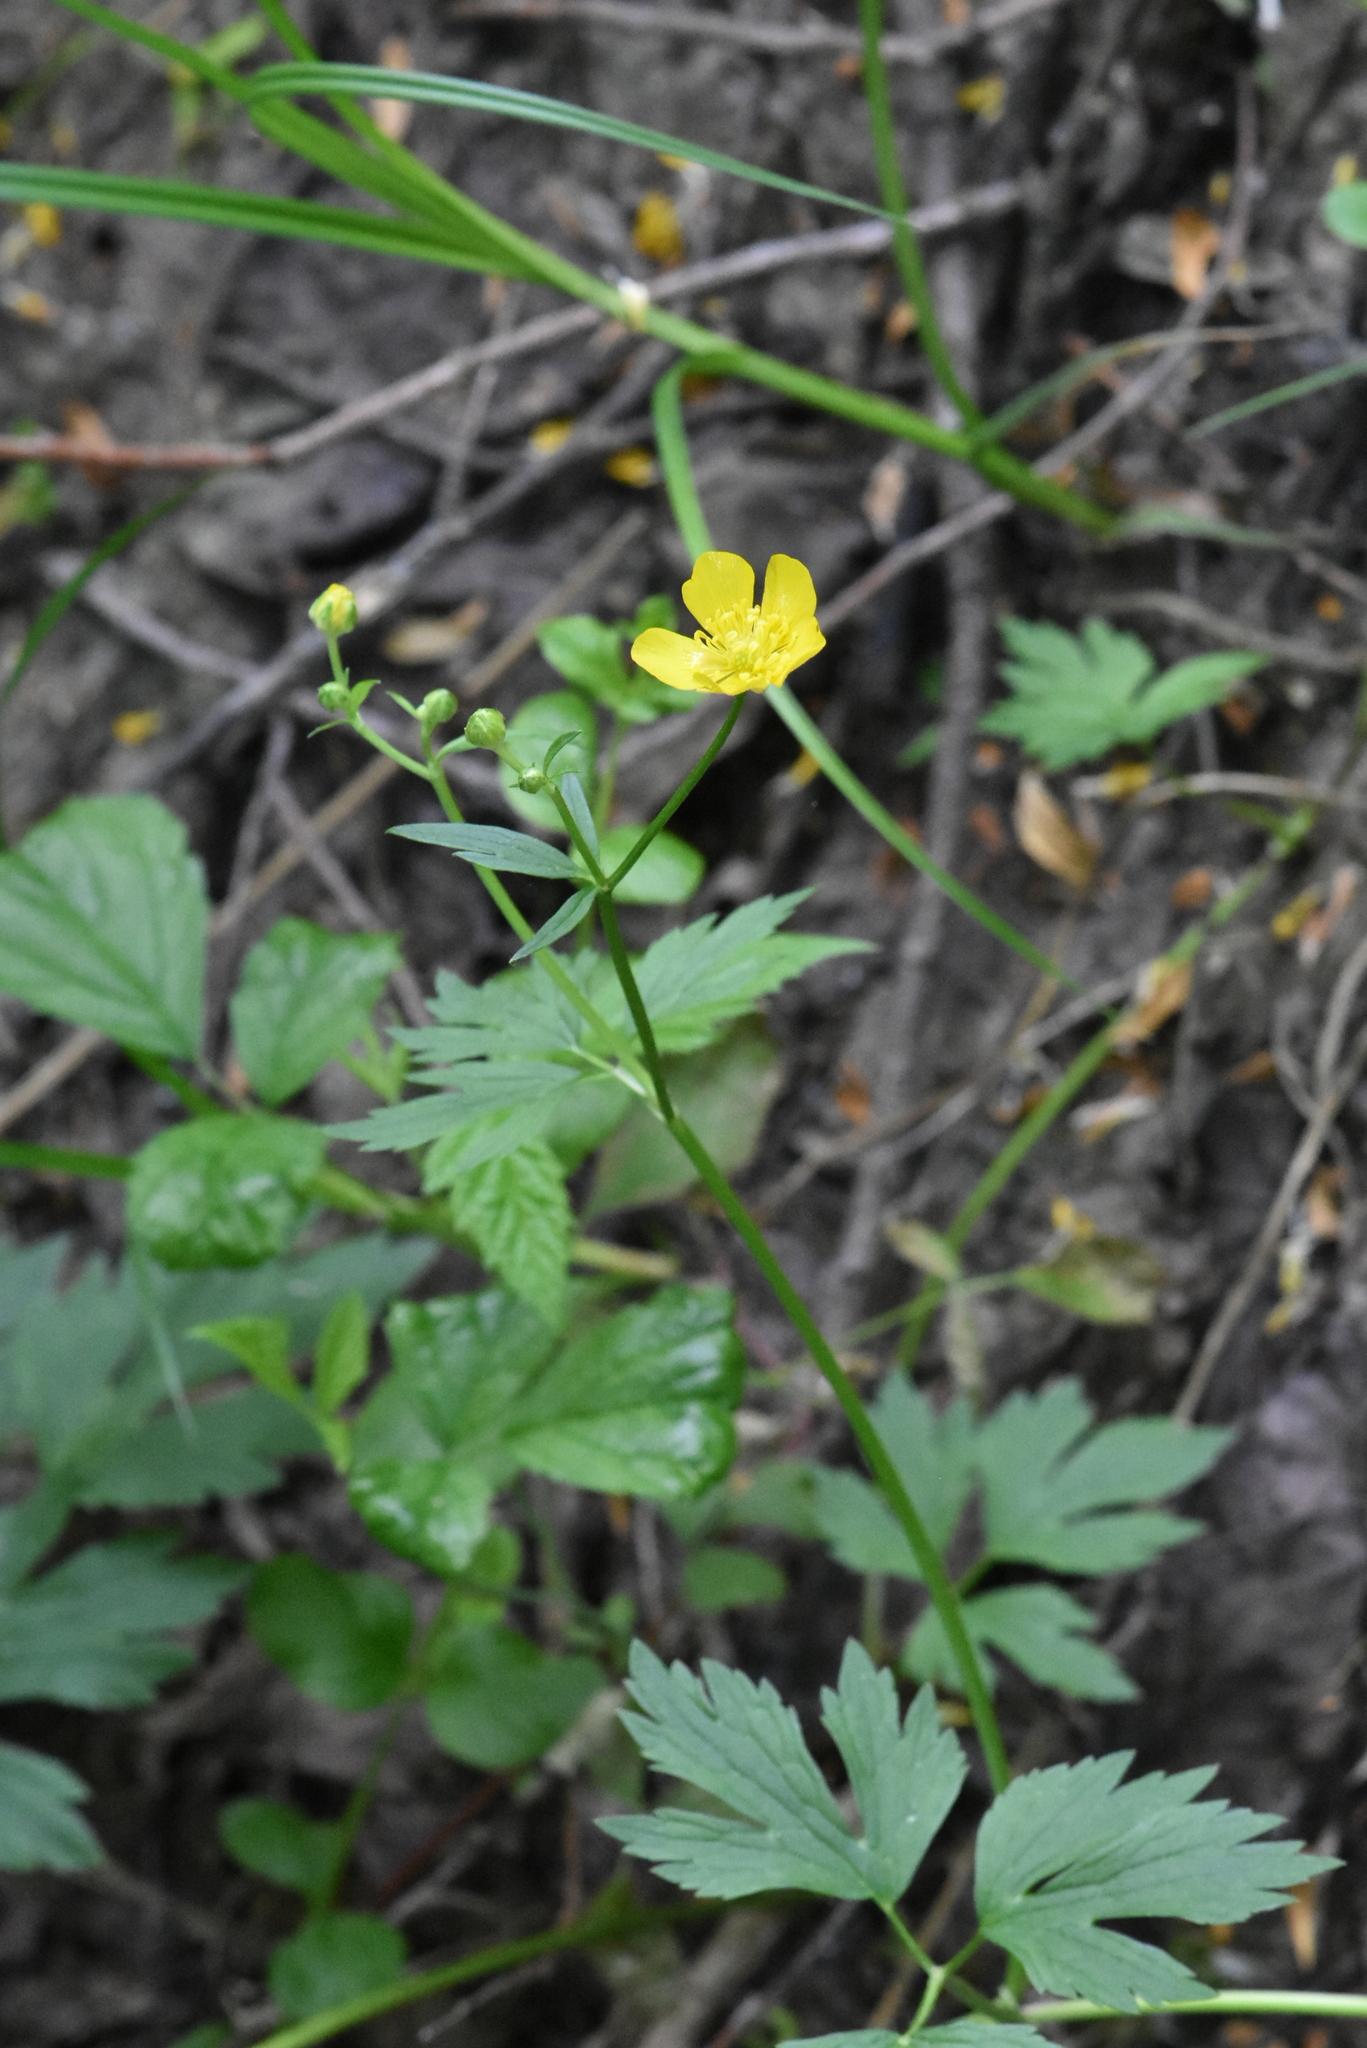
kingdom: Plantae
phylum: Tracheophyta
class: Magnoliopsida
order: Ranunculales
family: Ranunculaceae
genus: Ranunculus
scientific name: Ranunculus repens
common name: Creeping buttercup
